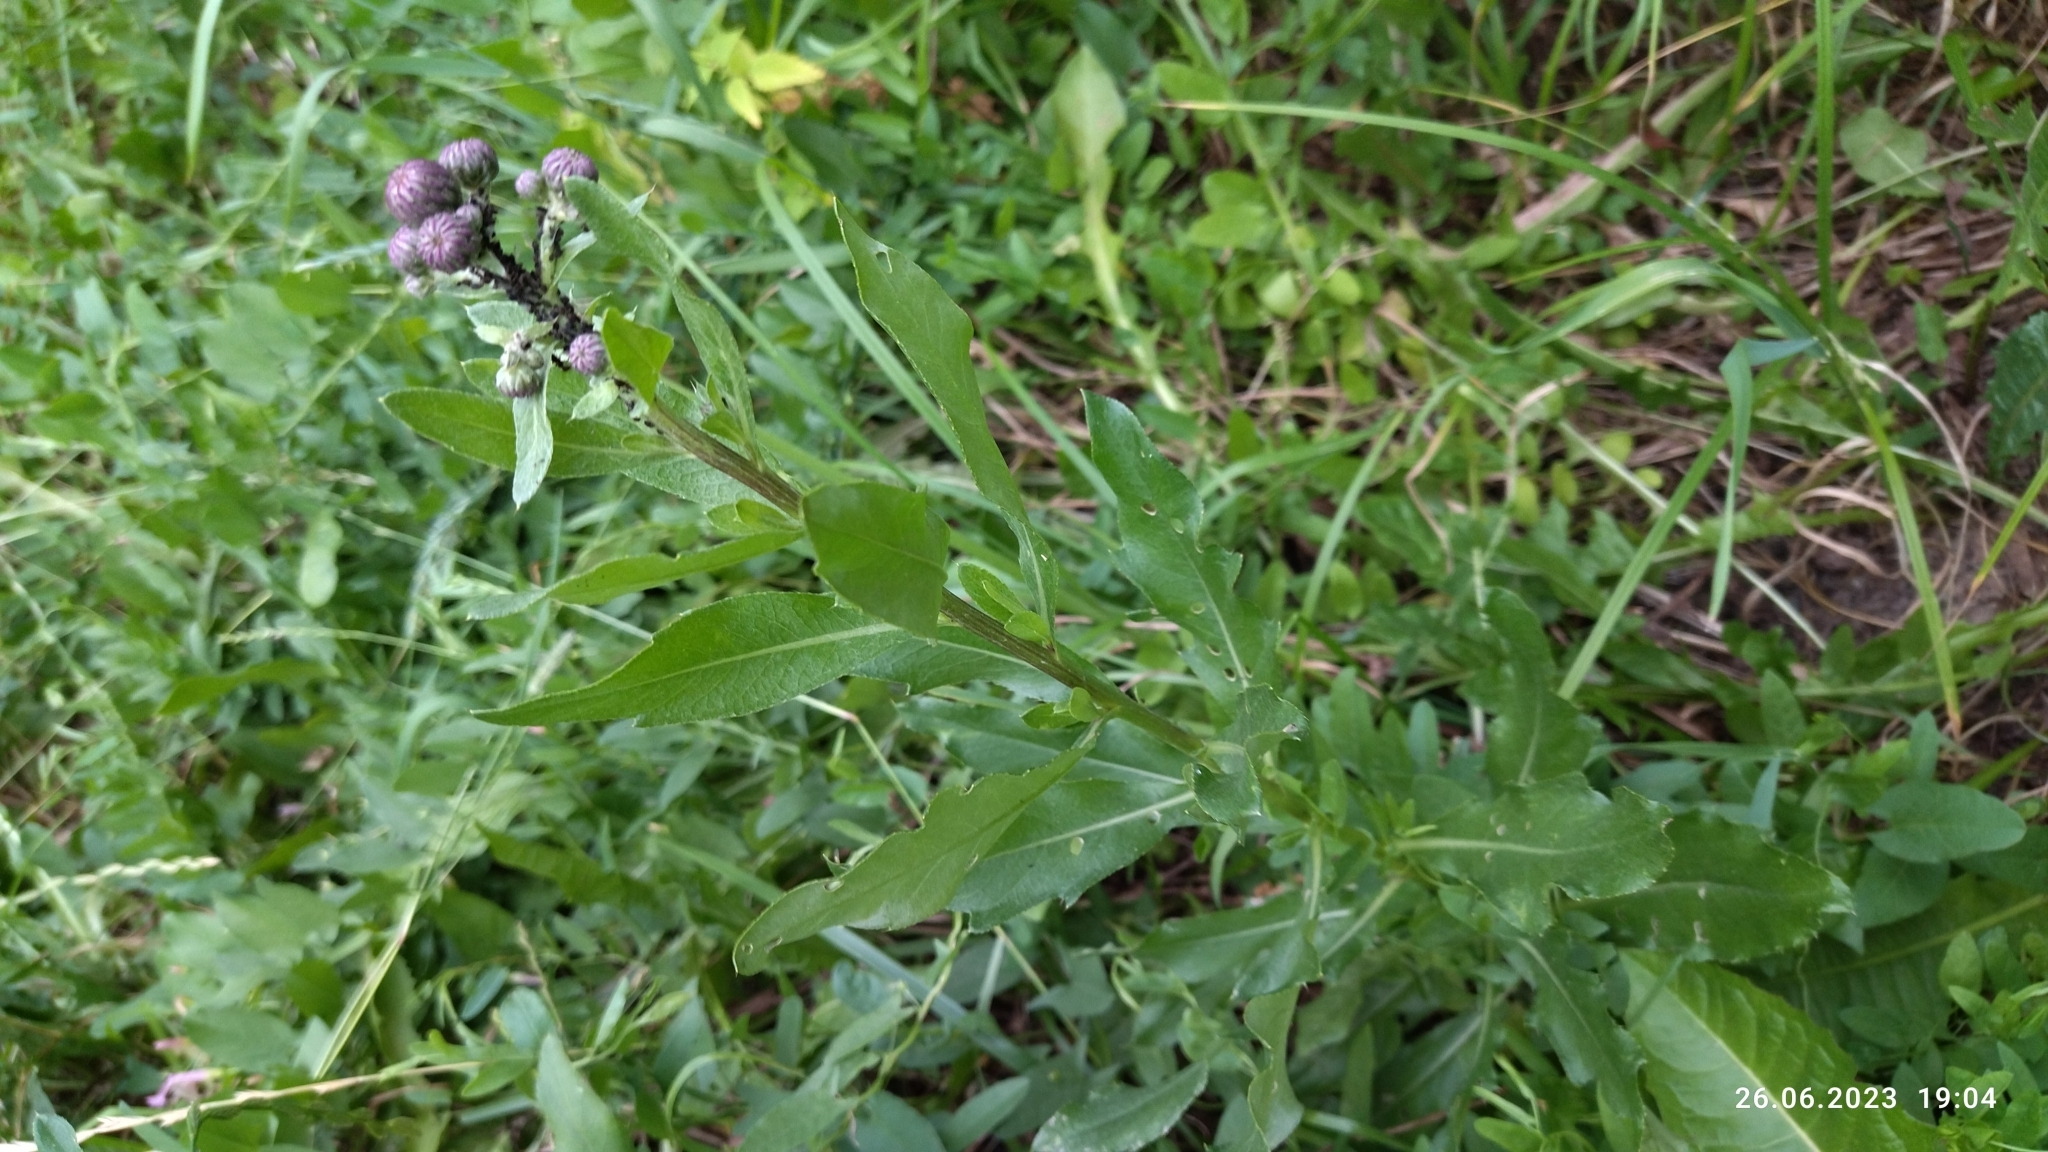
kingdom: Plantae
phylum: Tracheophyta
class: Magnoliopsida
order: Asterales
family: Asteraceae
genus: Cirsium
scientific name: Cirsium arvense
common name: Creeping thistle
